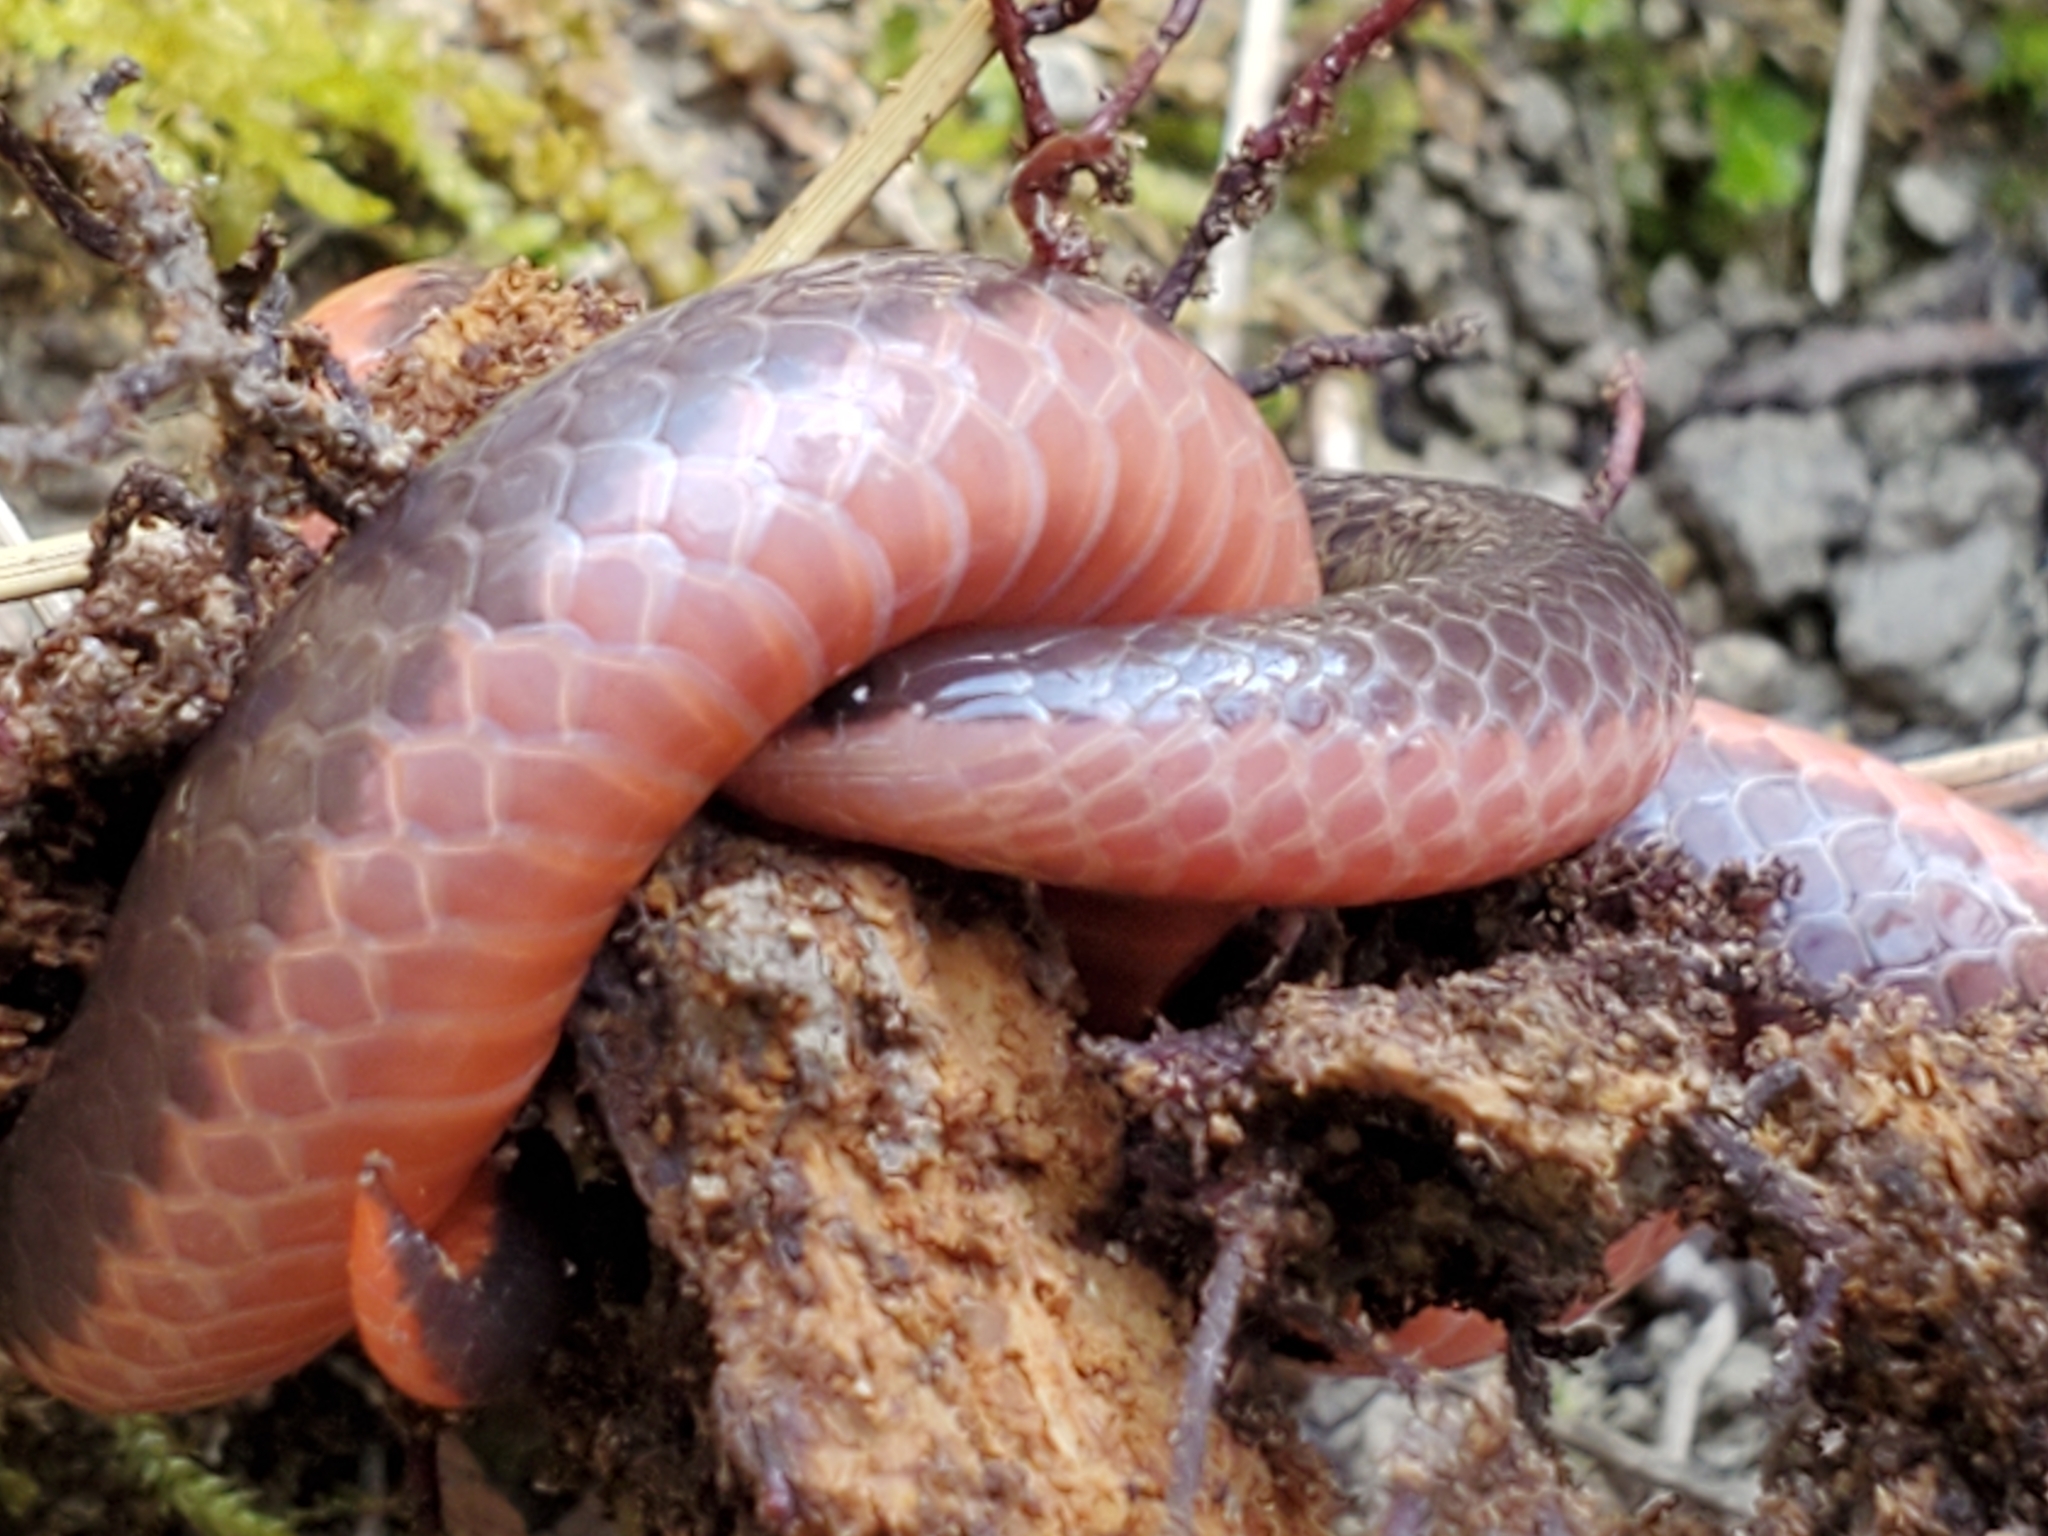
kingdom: Animalia
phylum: Chordata
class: Squamata
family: Colubridae
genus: Carphophis
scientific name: Carphophis amoenus
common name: Eastern worm snake
